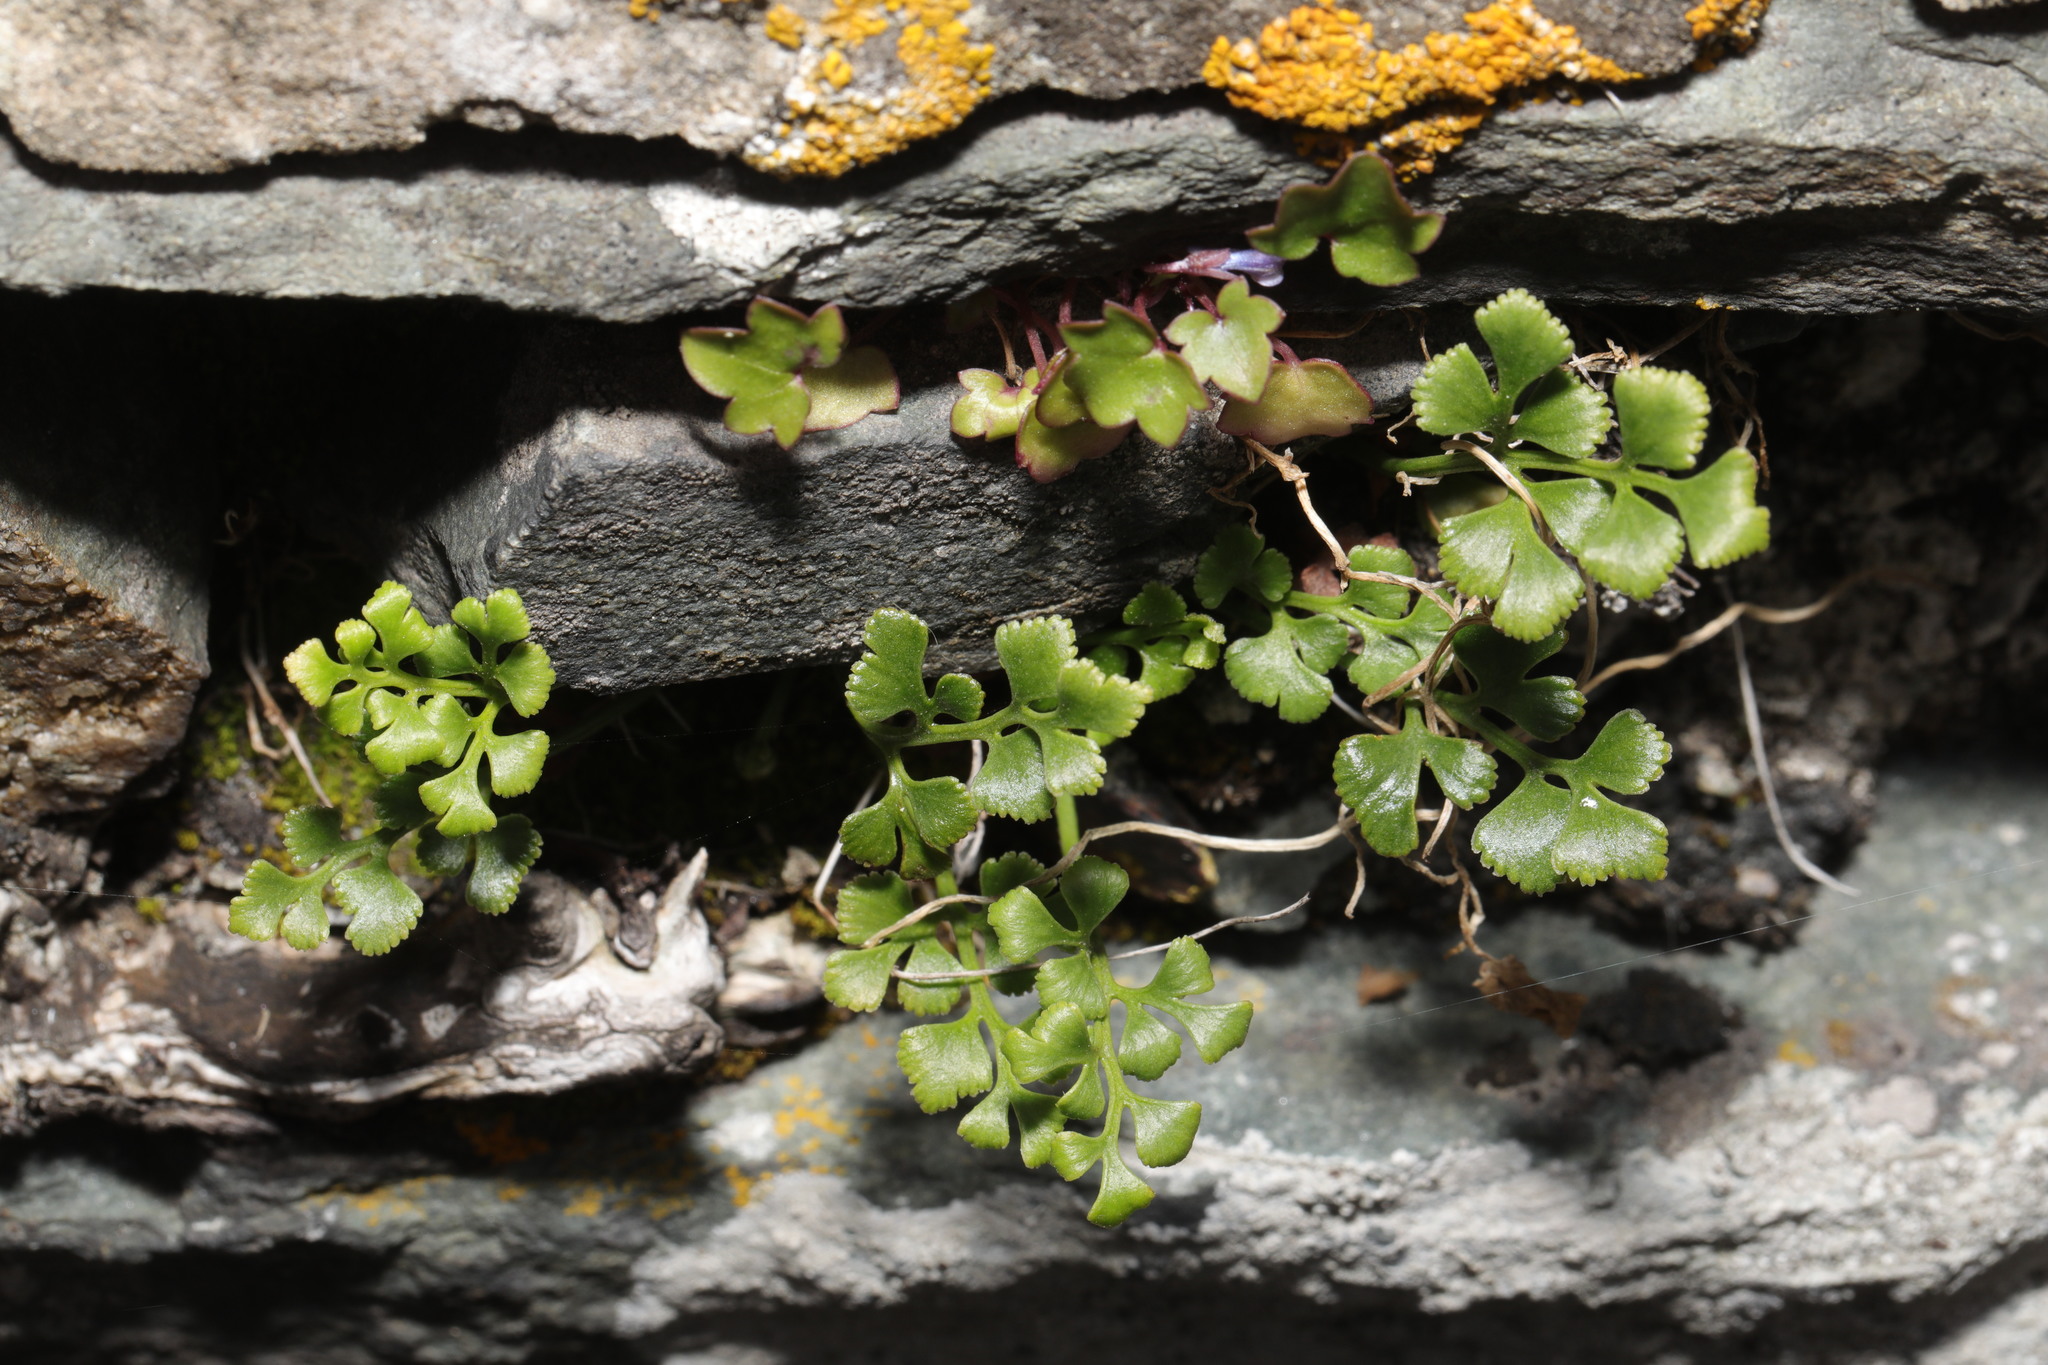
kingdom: Plantae
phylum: Tracheophyta
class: Polypodiopsida
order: Polypodiales
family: Aspleniaceae
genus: Asplenium
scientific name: Asplenium ruta-muraria
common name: Wall-rue
